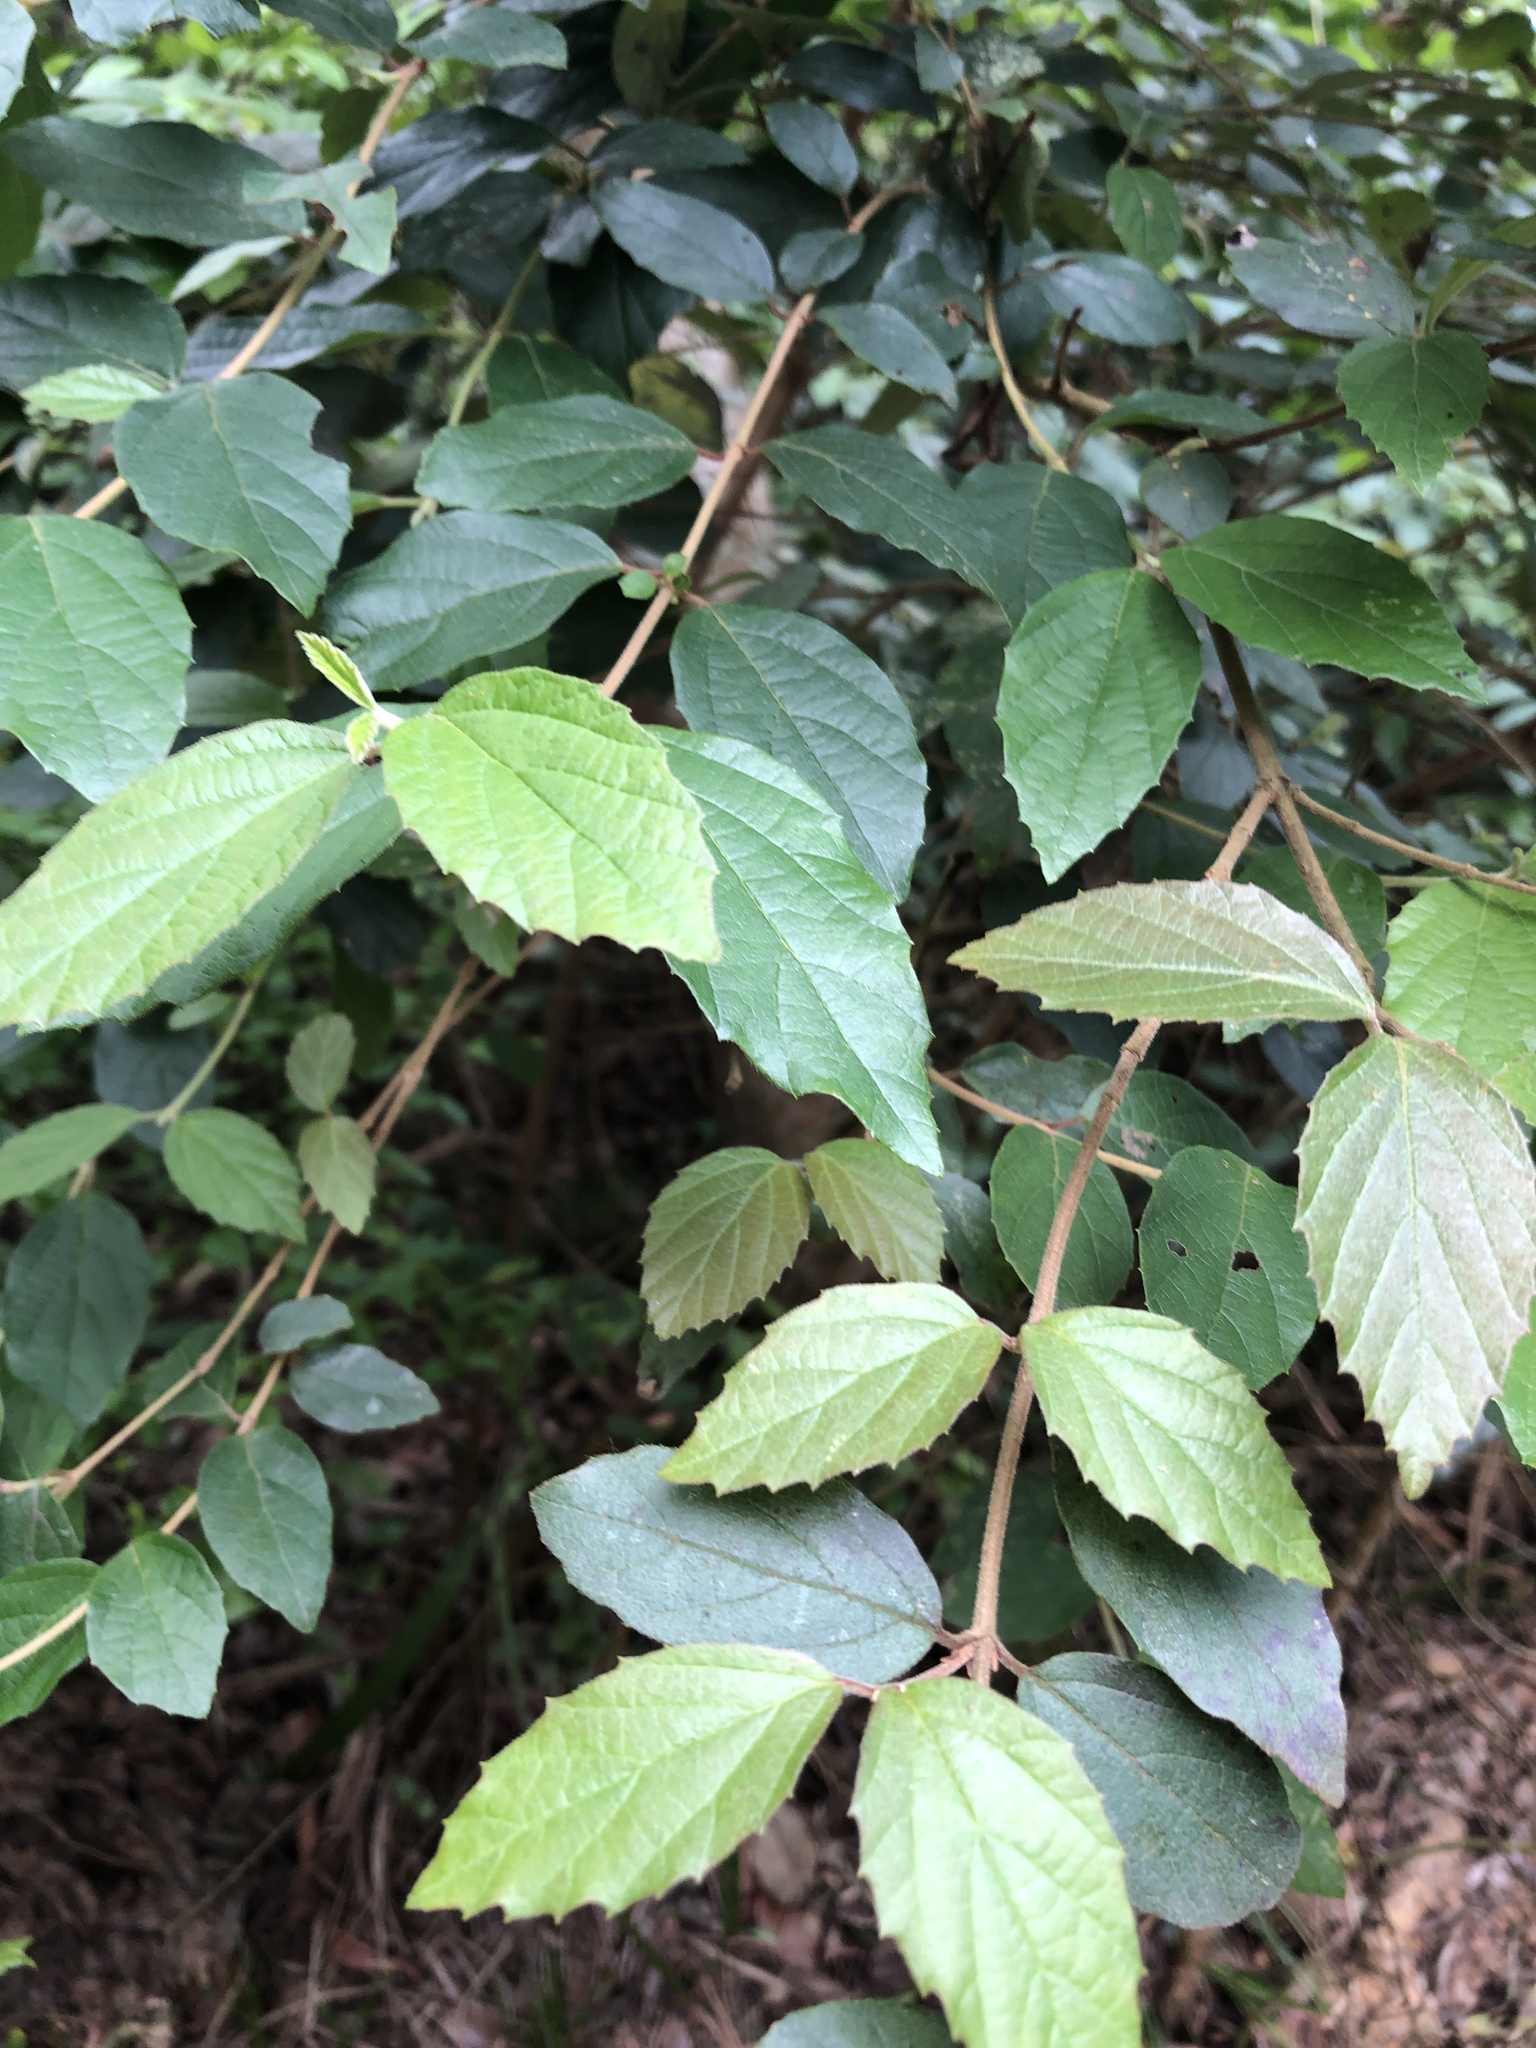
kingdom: Plantae
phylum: Tracheophyta
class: Magnoliopsida
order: Dipsacales
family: Viburnaceae
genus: Viburnum
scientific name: Viburnum luzonicum
